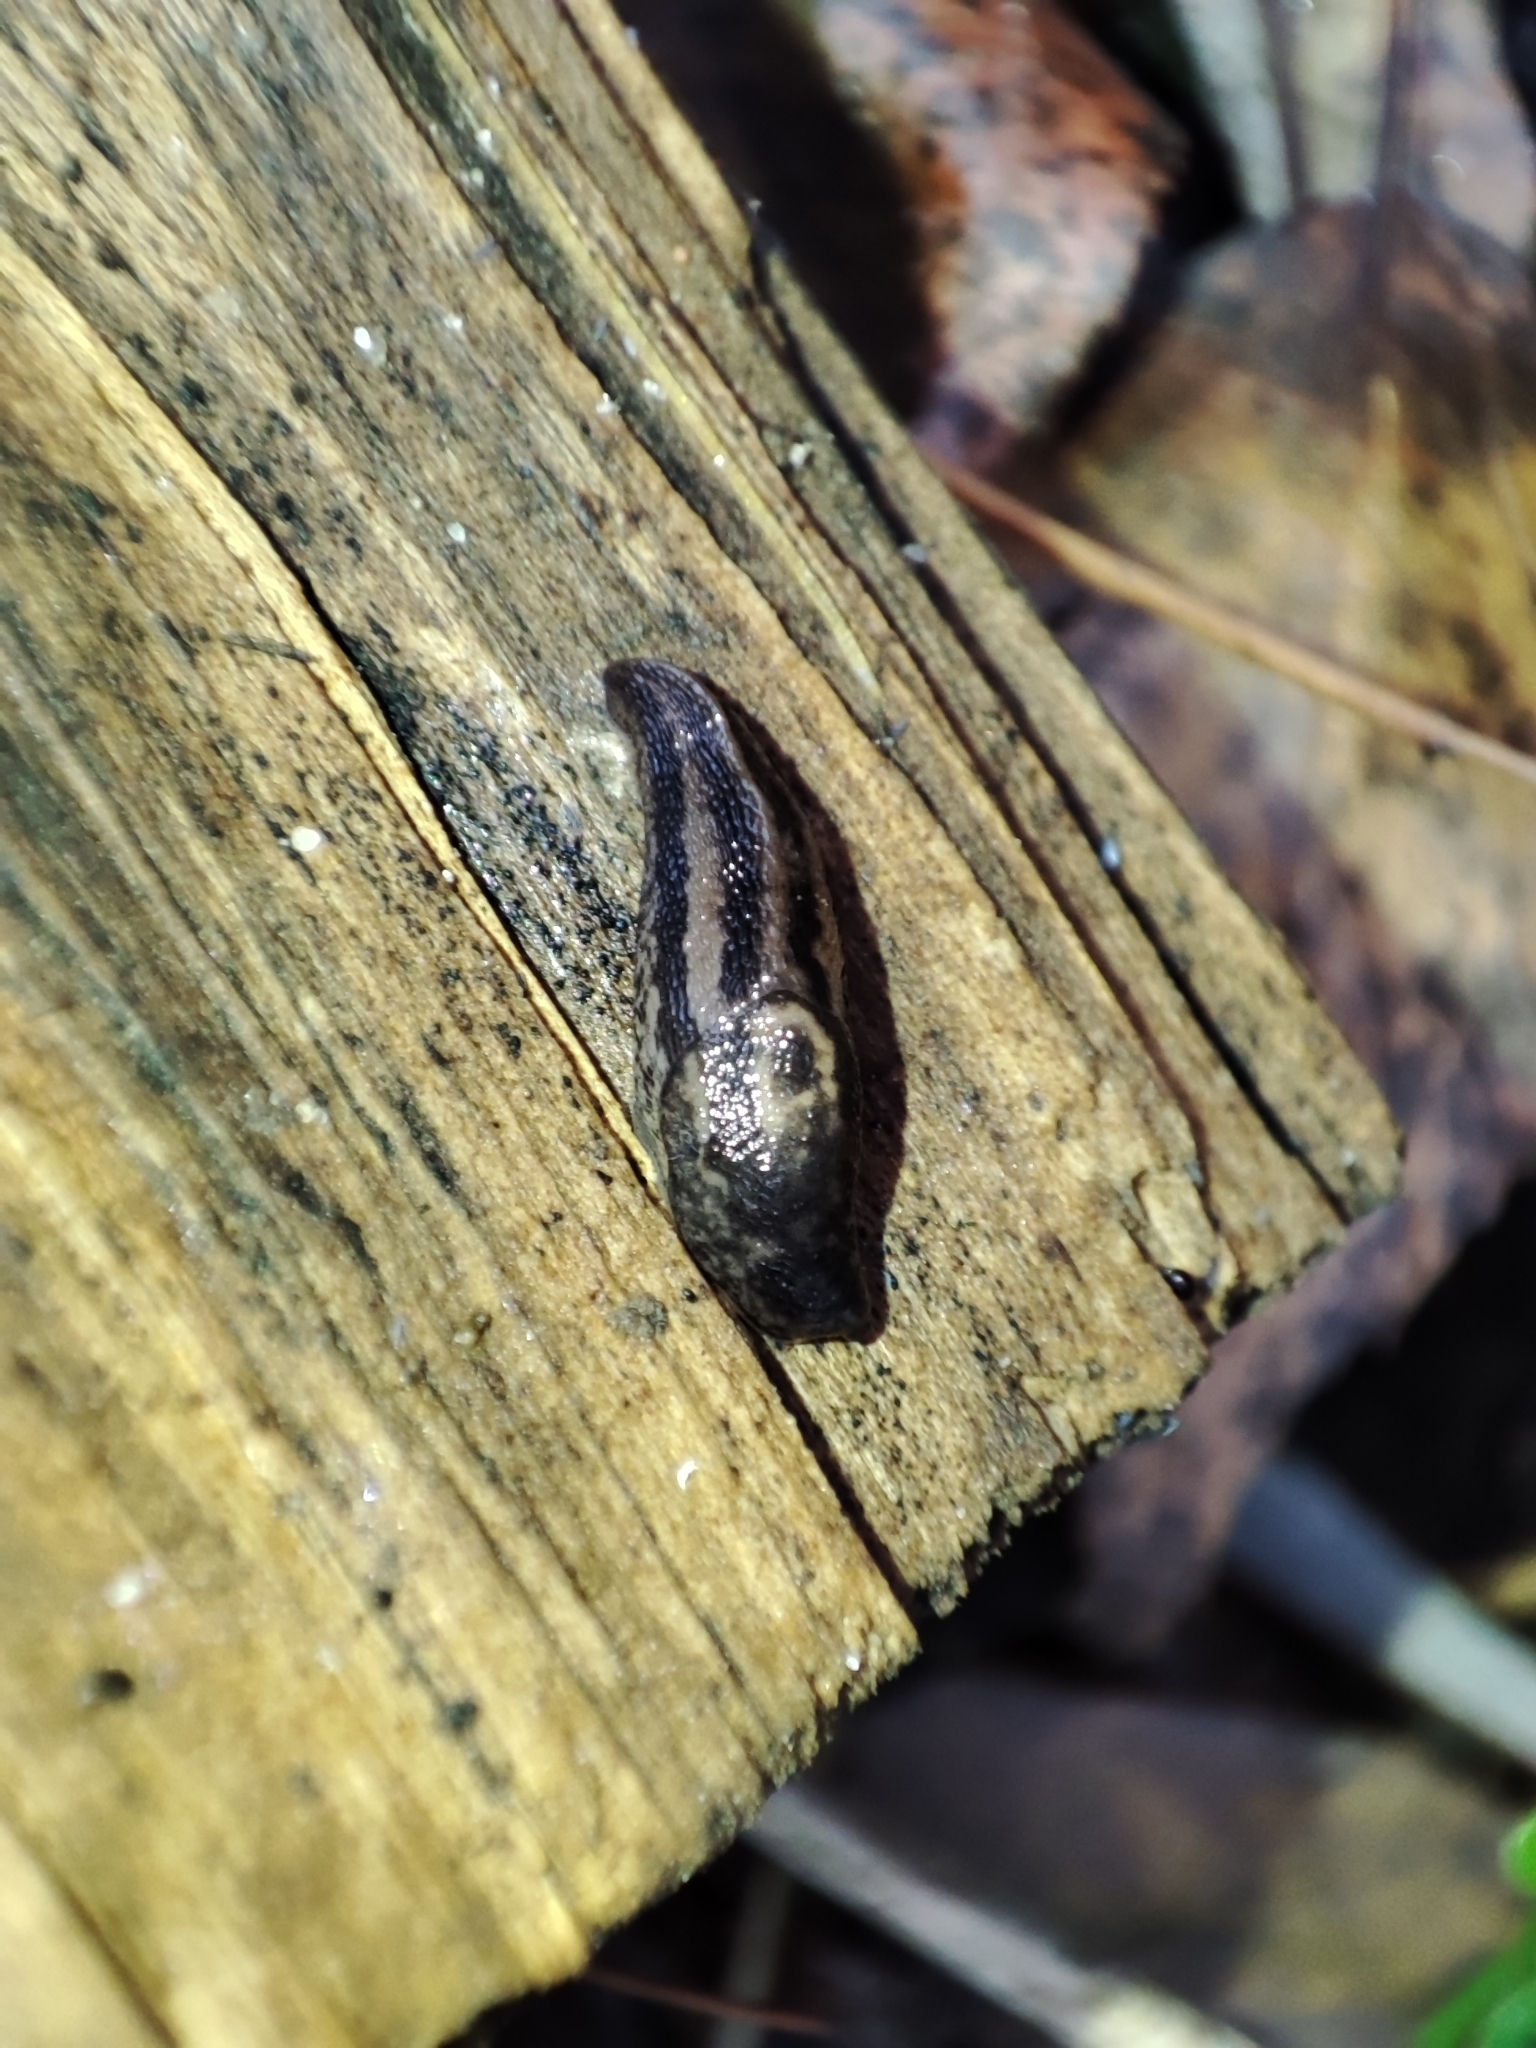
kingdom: Animalia
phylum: Mollusca
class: Gastropoda
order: Stylommatophora
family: Limacidae
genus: Limax
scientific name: Limax maximus
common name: Great grey slug
